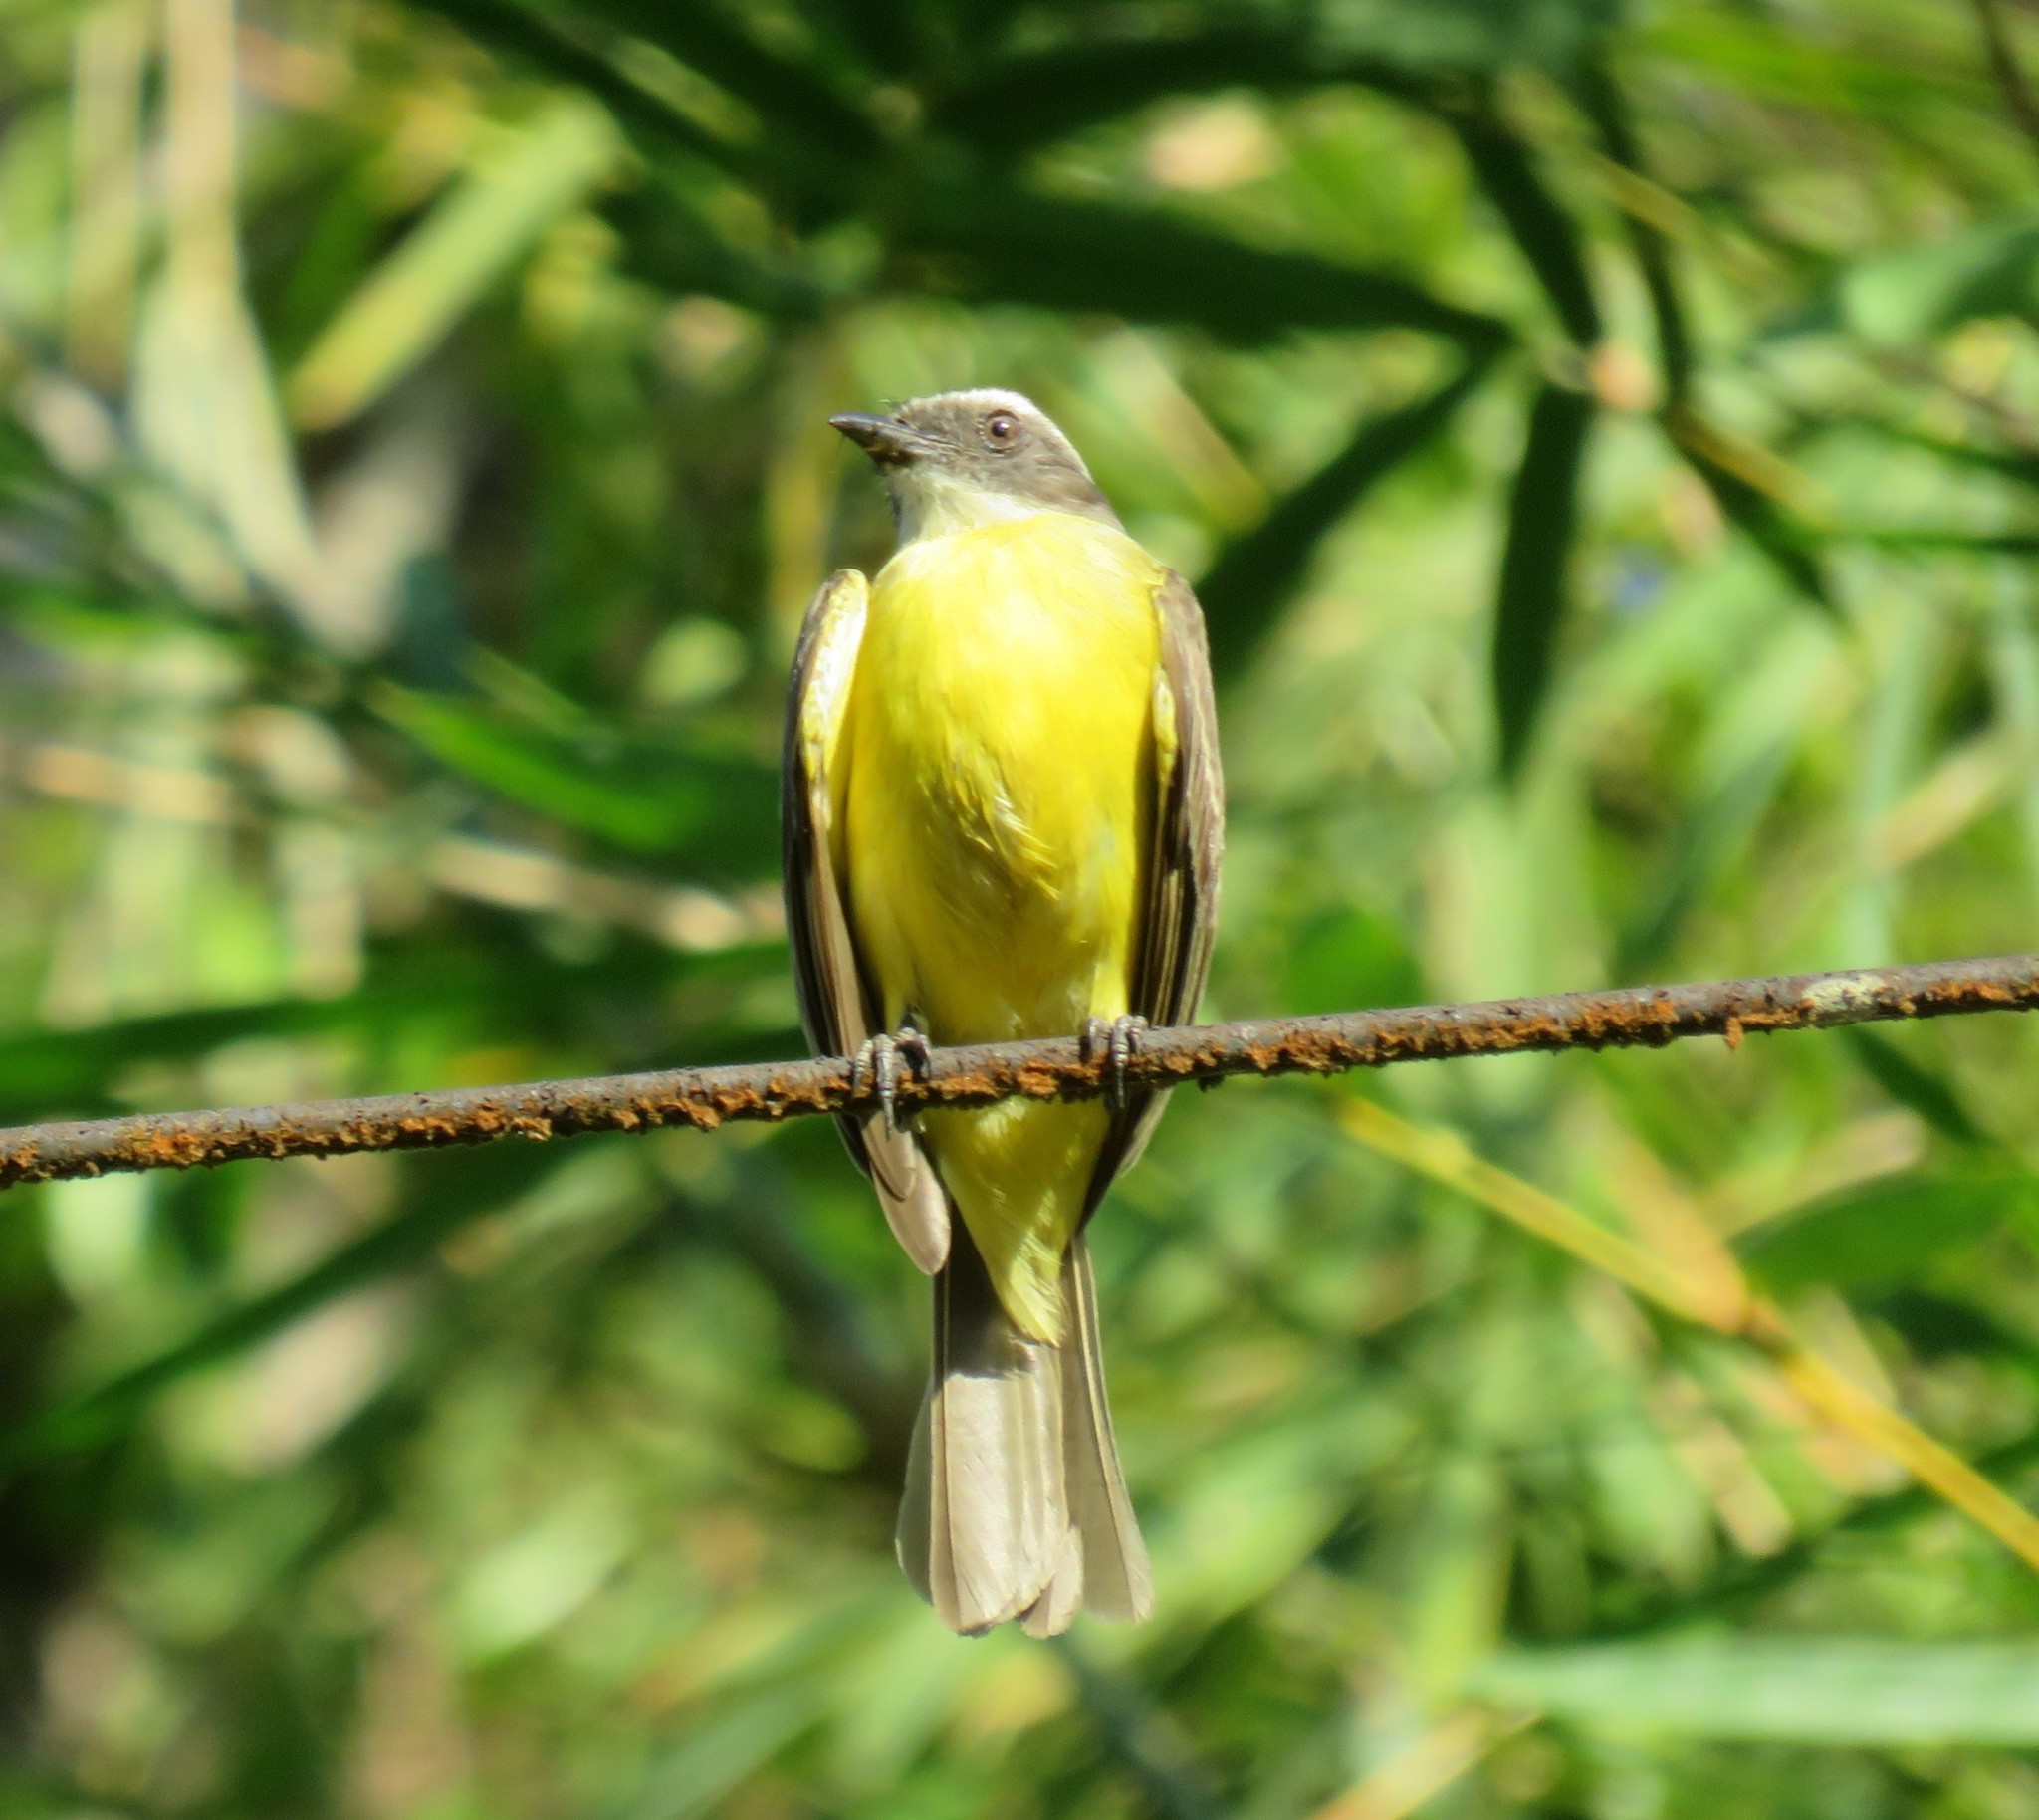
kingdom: Animalia
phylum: Chordata
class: Aves
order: Passeriformes
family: Tyrannidae
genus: Myiozetetes
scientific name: Myiozetetes similis
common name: Social flycatcher
